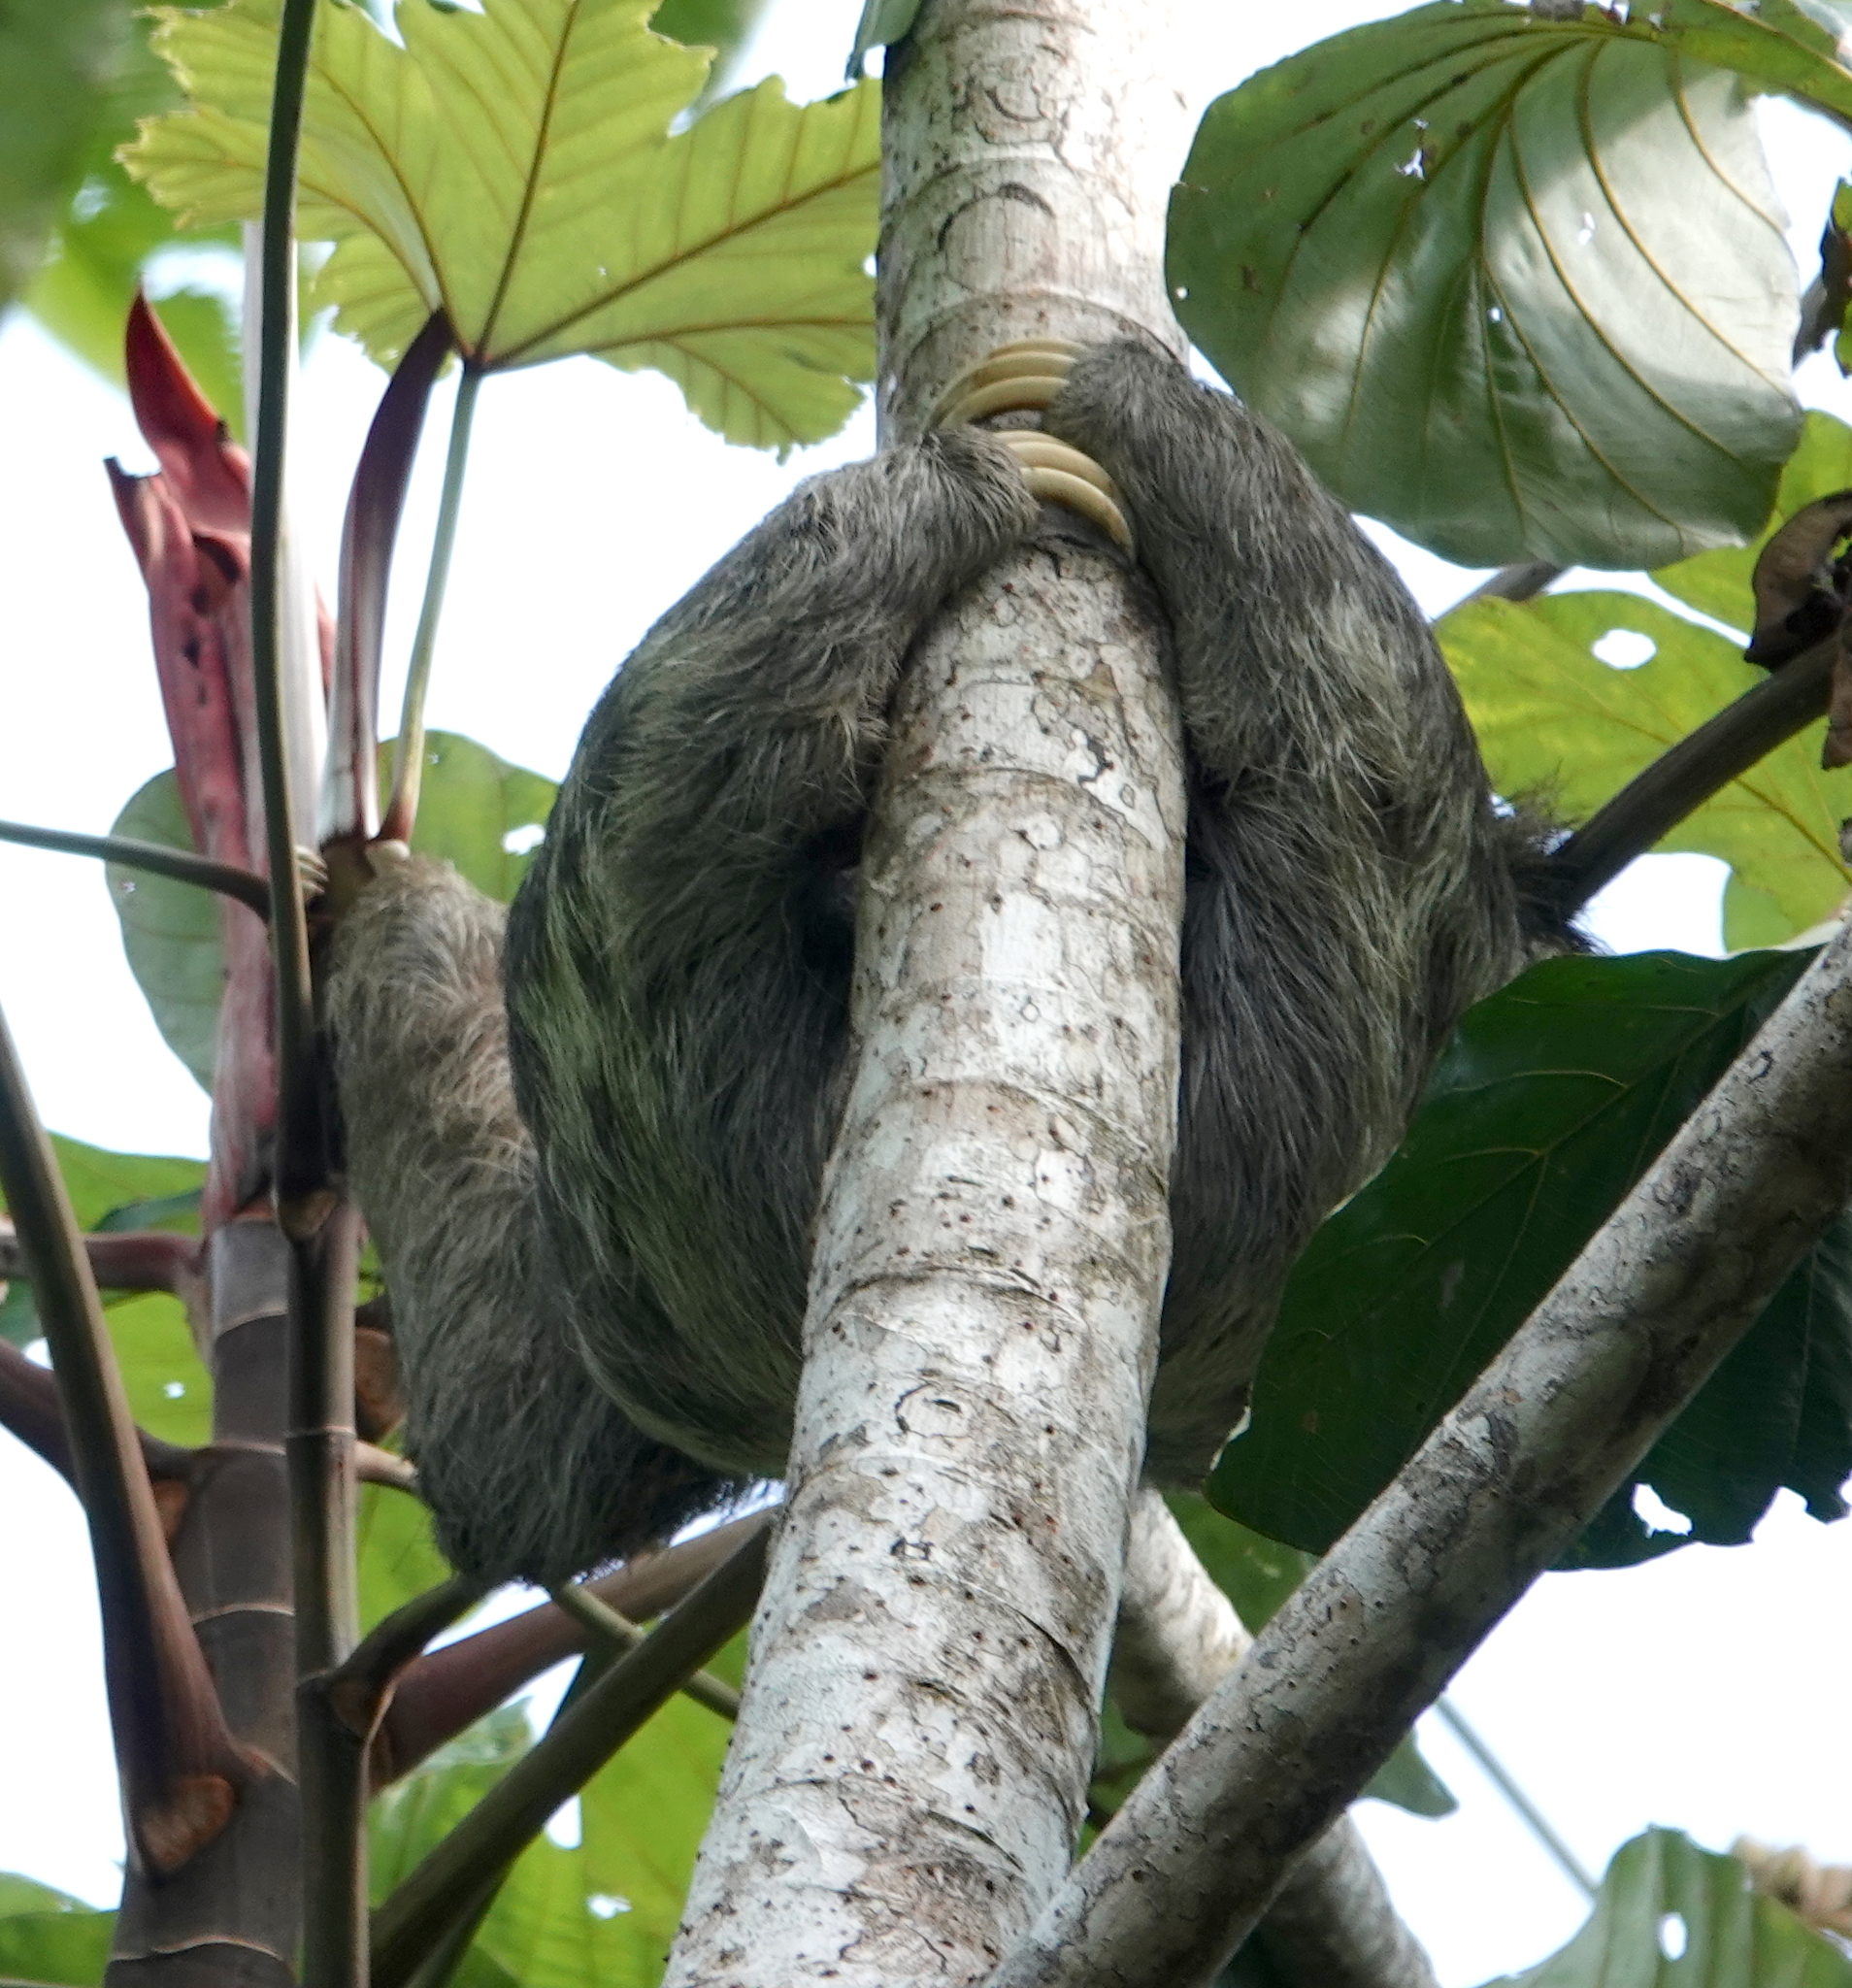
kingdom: Animalia
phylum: Chordata
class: Mammalia
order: Pilosa
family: Bradypodidae
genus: Bradypus
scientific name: Bradypus variegatus
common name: Brown-throated three-toed sloth
